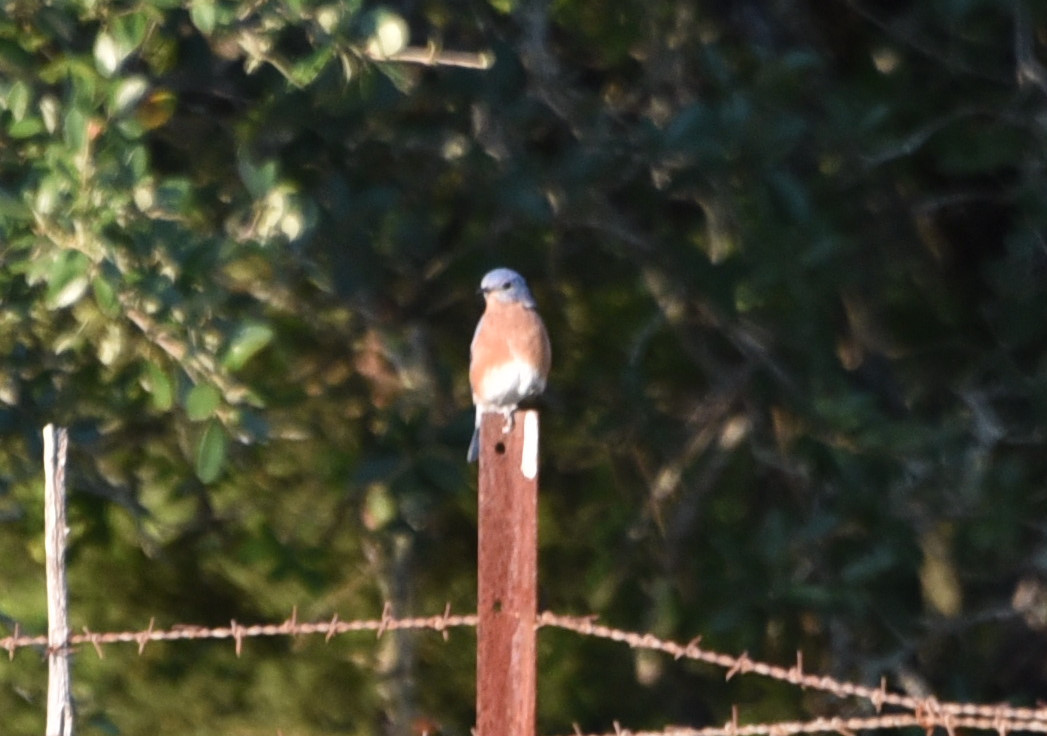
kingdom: Animalia
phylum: Chordata
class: Aves
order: Passeriformes
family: Turdidae
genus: Sialia
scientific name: Sialia sialis
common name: Eastern bluebird
